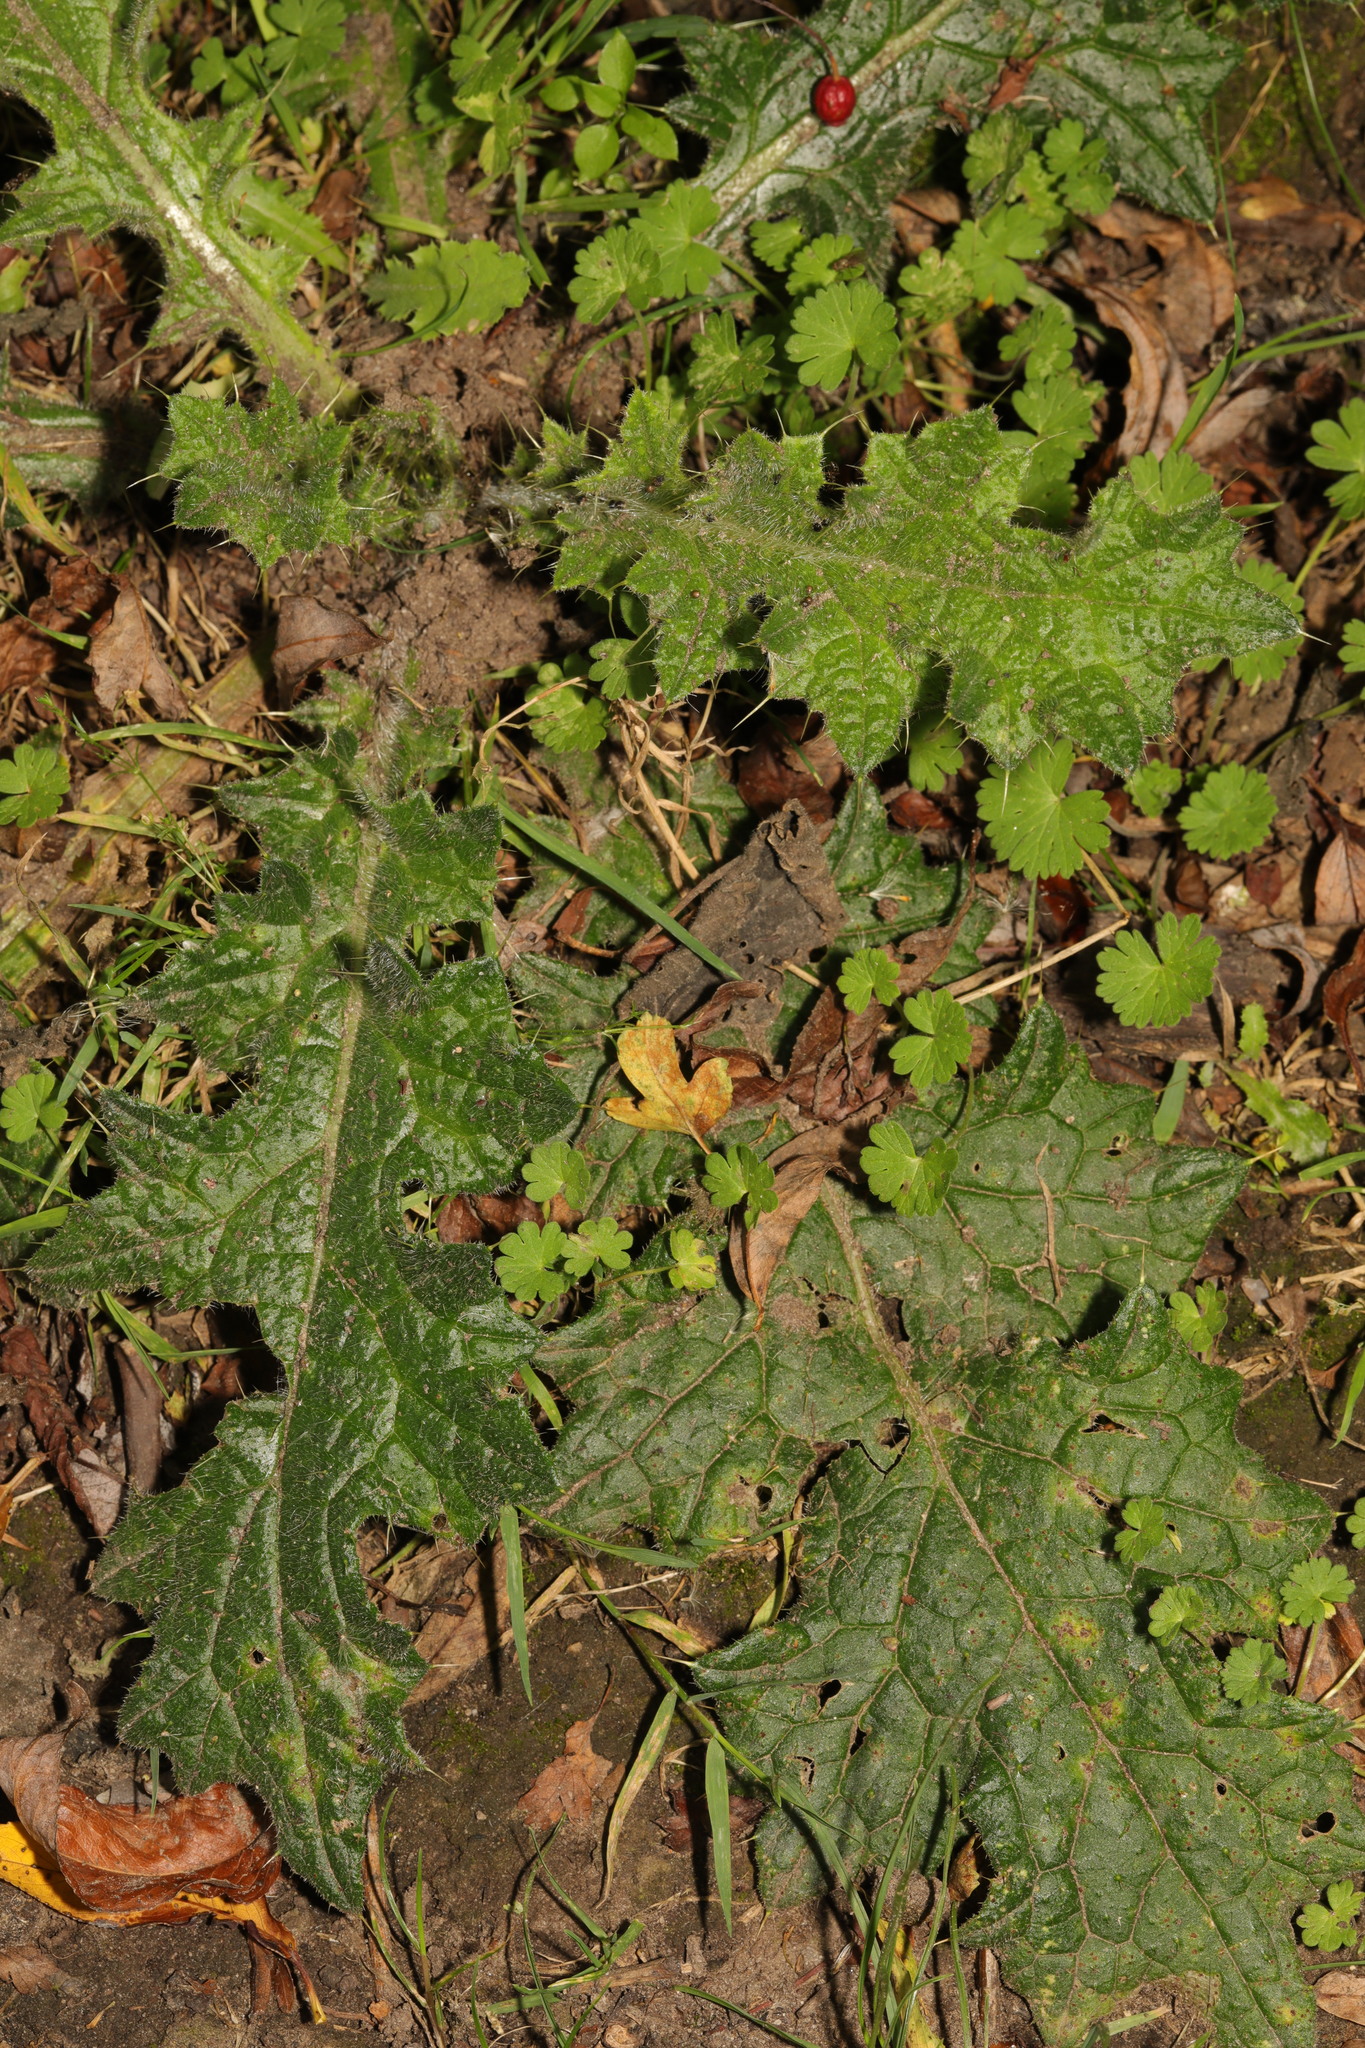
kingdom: Plantae
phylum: Tracheophyta
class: Magnoliopsida
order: Asterales
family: Asteraceae
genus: Cirsium
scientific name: Cirsium vulgare
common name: Bull thistle
